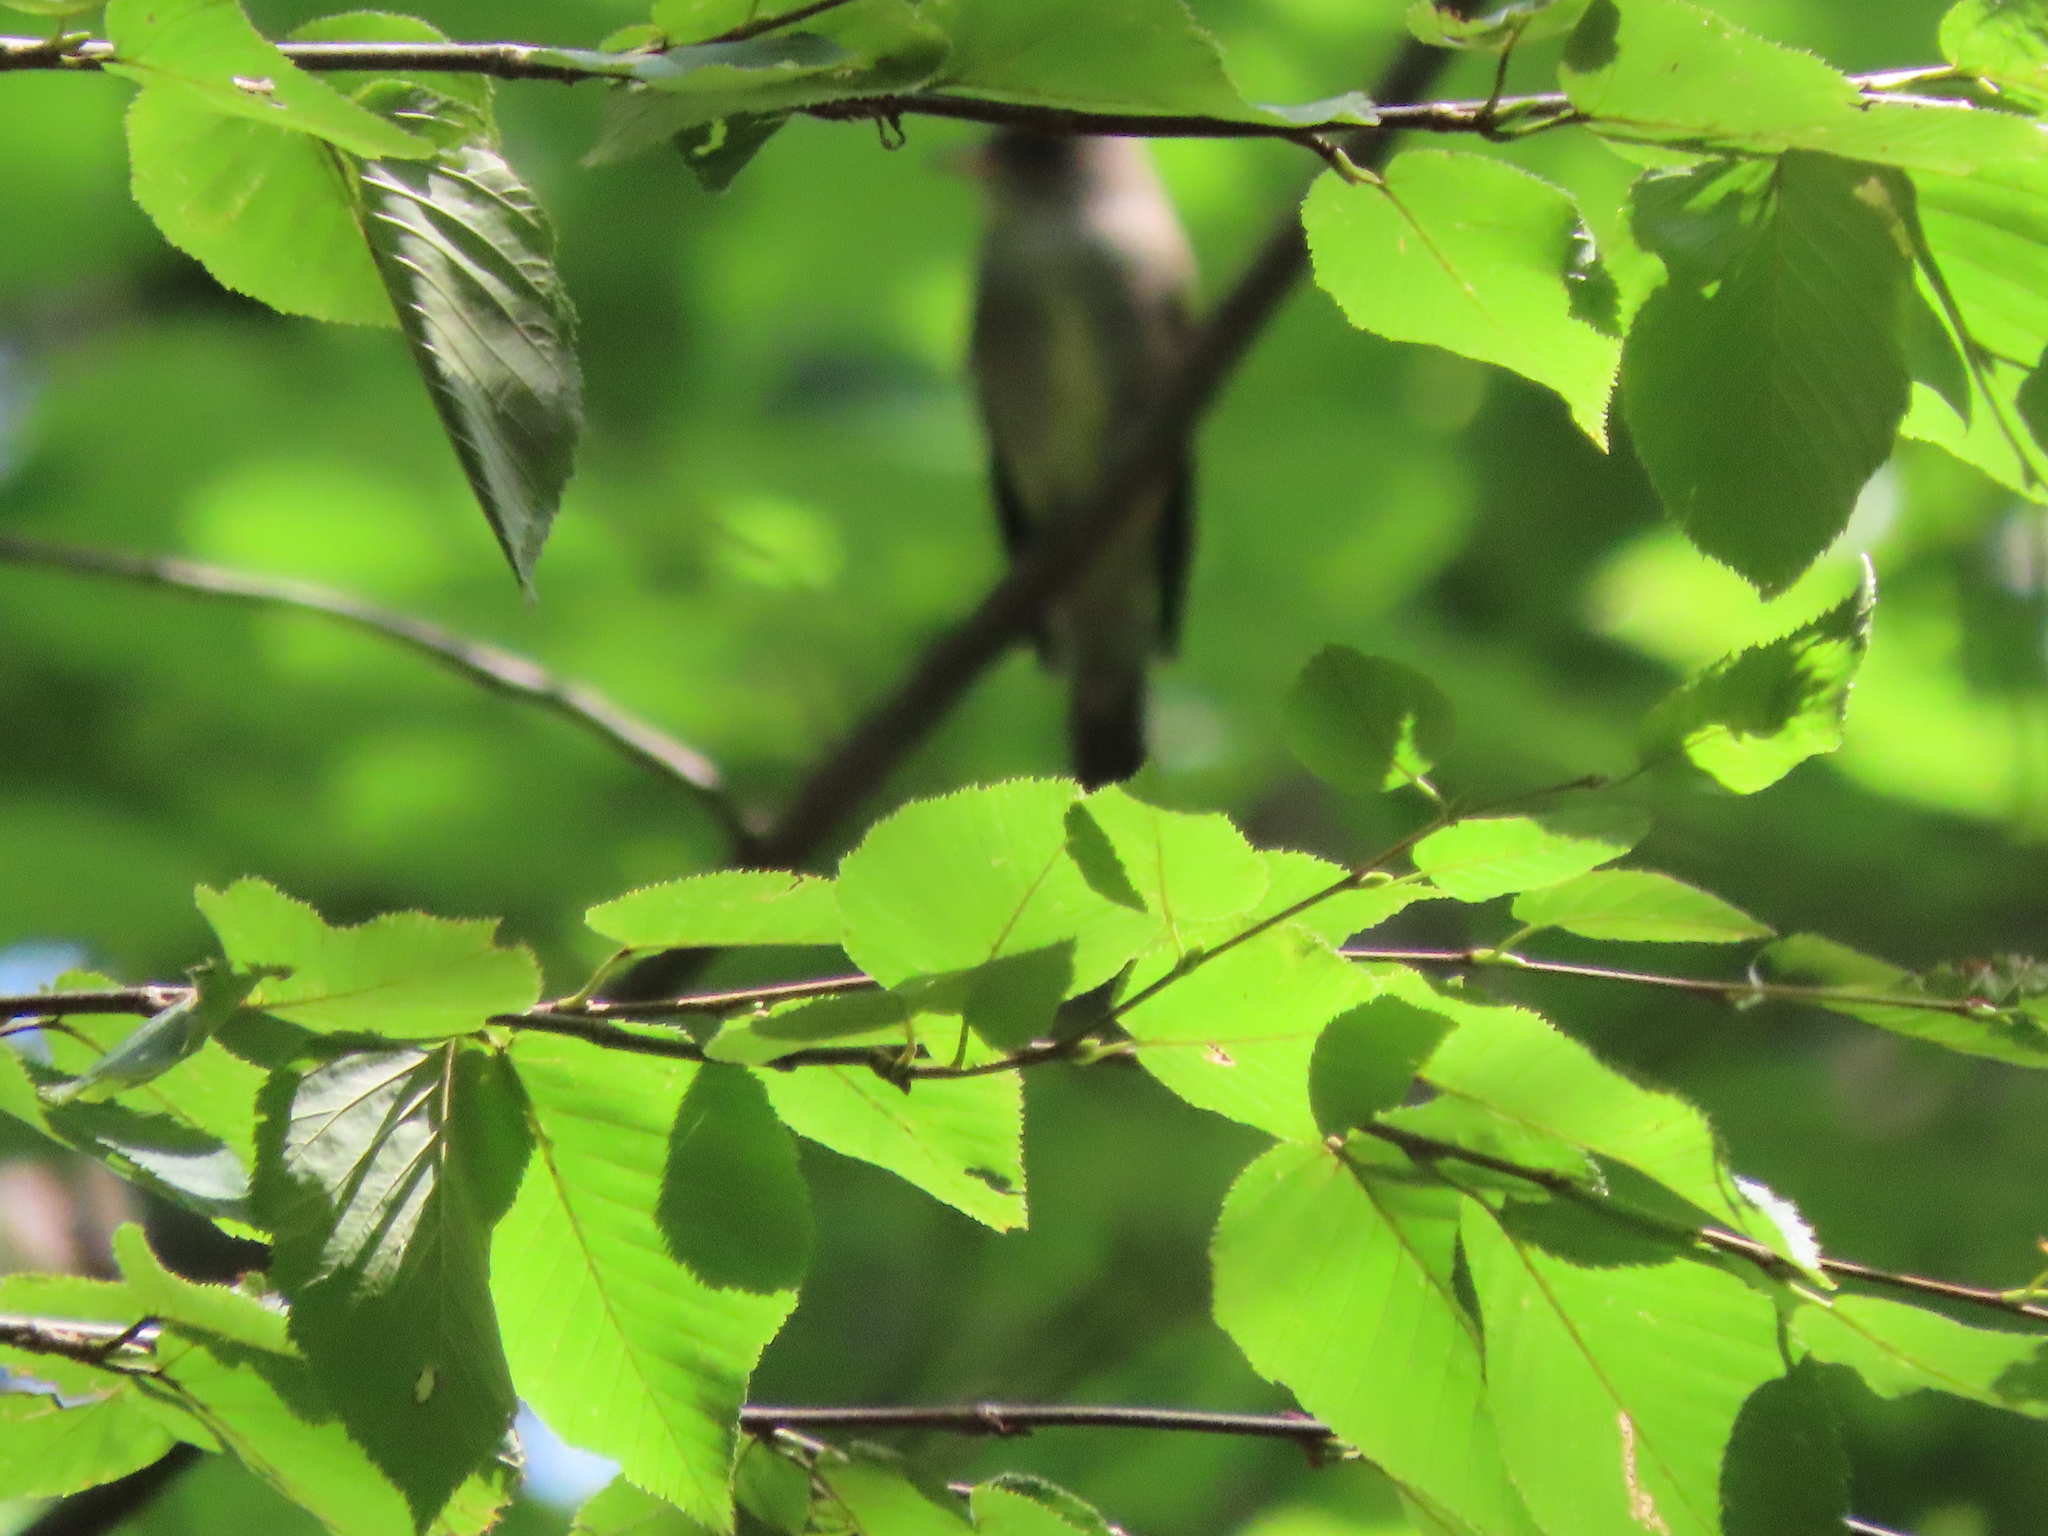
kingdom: Animalia
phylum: Chordata
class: Aves
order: Passeriformes
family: Tyrannidae
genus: Contopus
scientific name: Contopus virens
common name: Eastern wood-pewee
